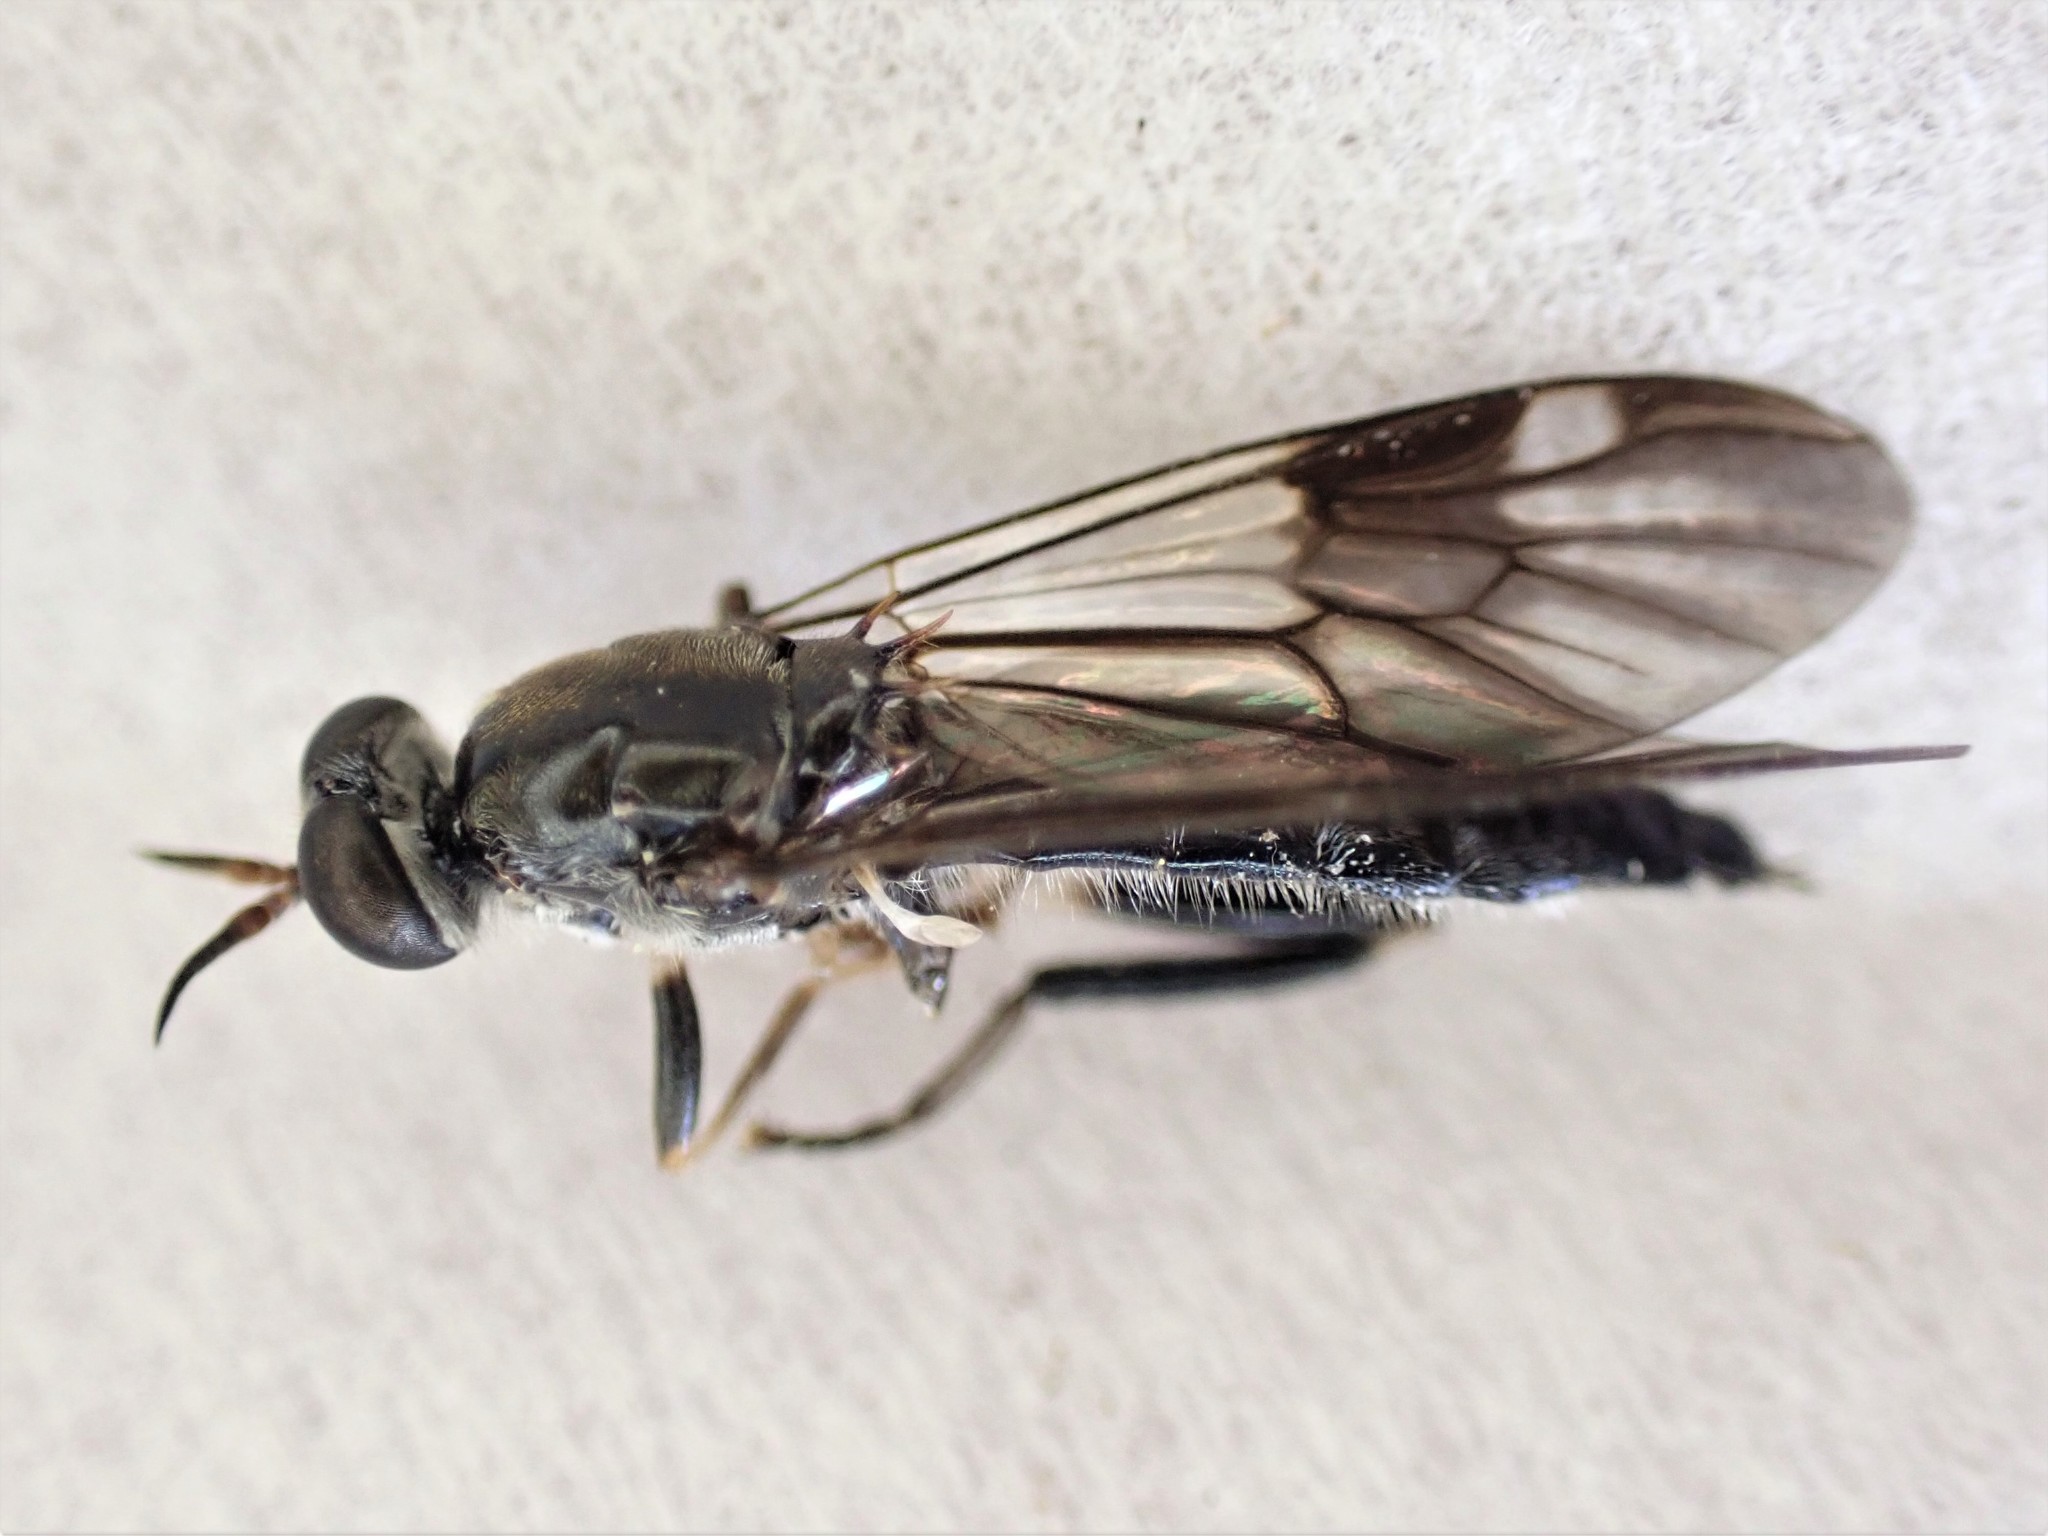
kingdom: Animalia
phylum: Arthropoda
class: Insecta
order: Diptera
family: Stratiomyidae
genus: Exaireta
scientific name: Exaireta spinigera
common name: Blue soldier fly
